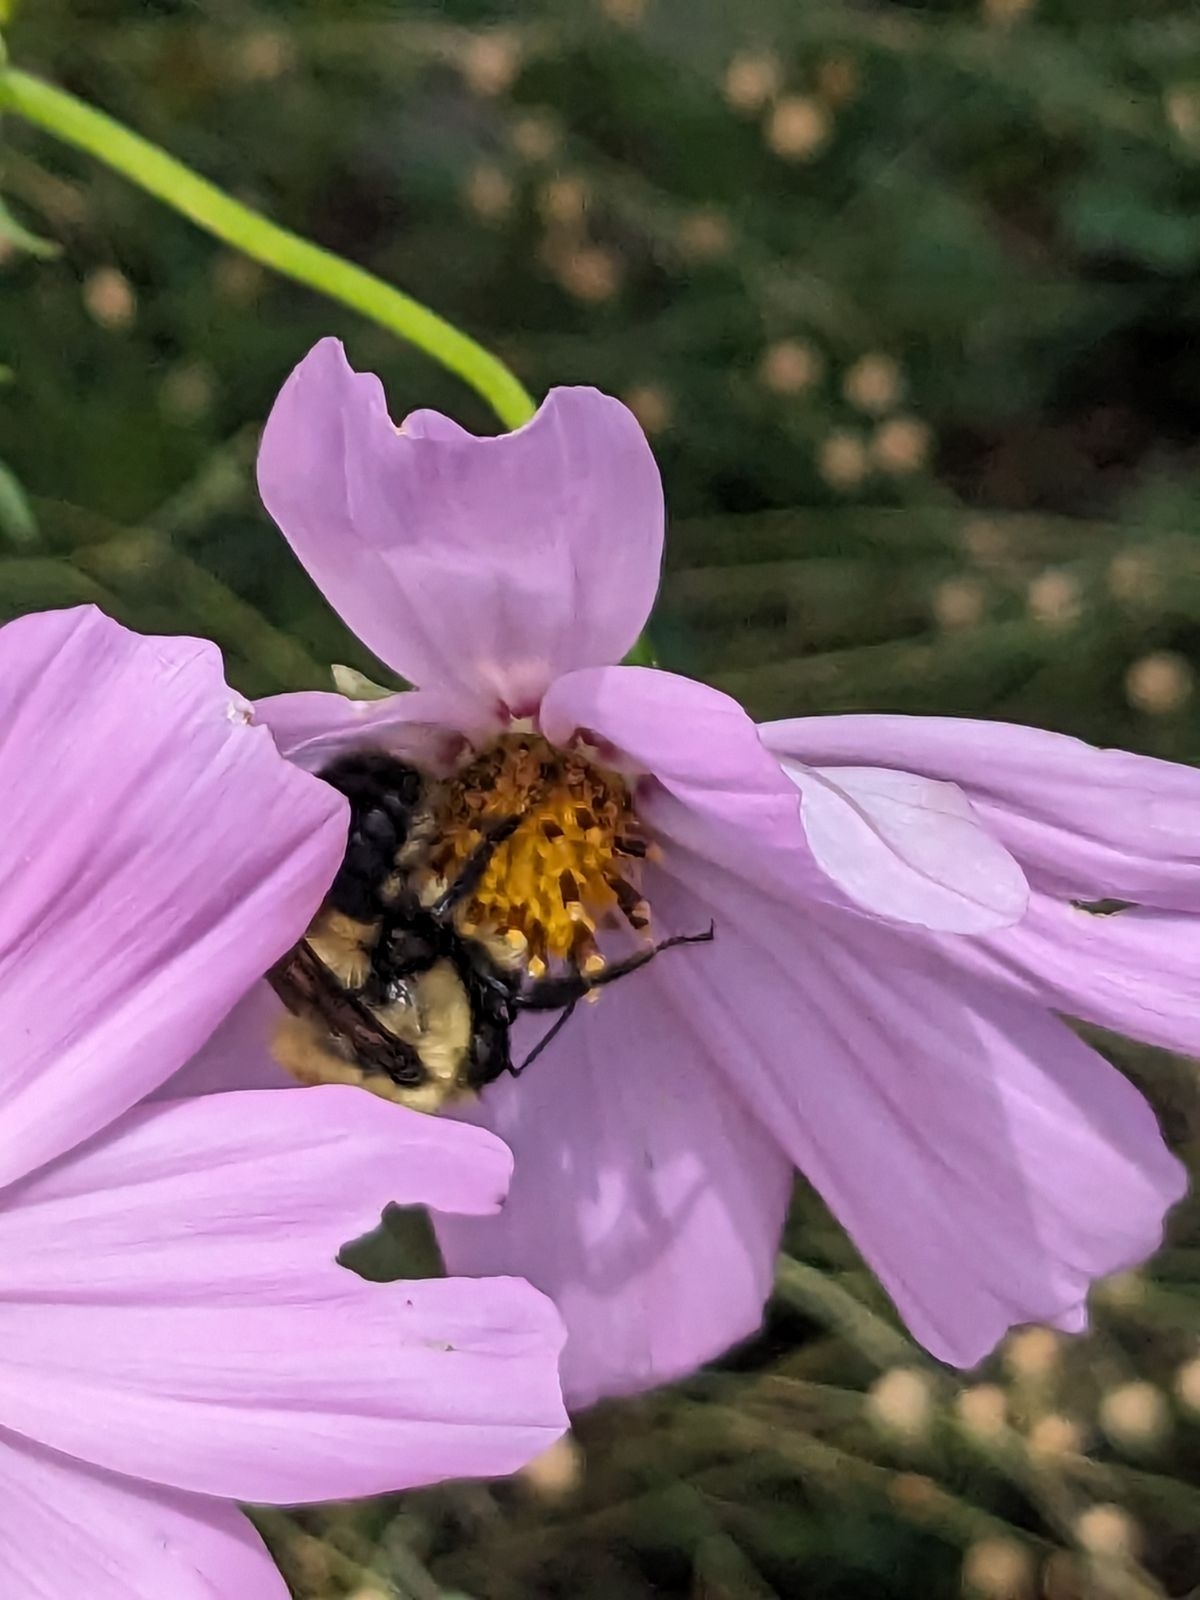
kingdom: Animalia
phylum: Arthropoda
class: Insecta
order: Hymenoptera
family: Apidae
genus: Bombus
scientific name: Bombus griseocollis
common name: Brown-belted bumble bee
